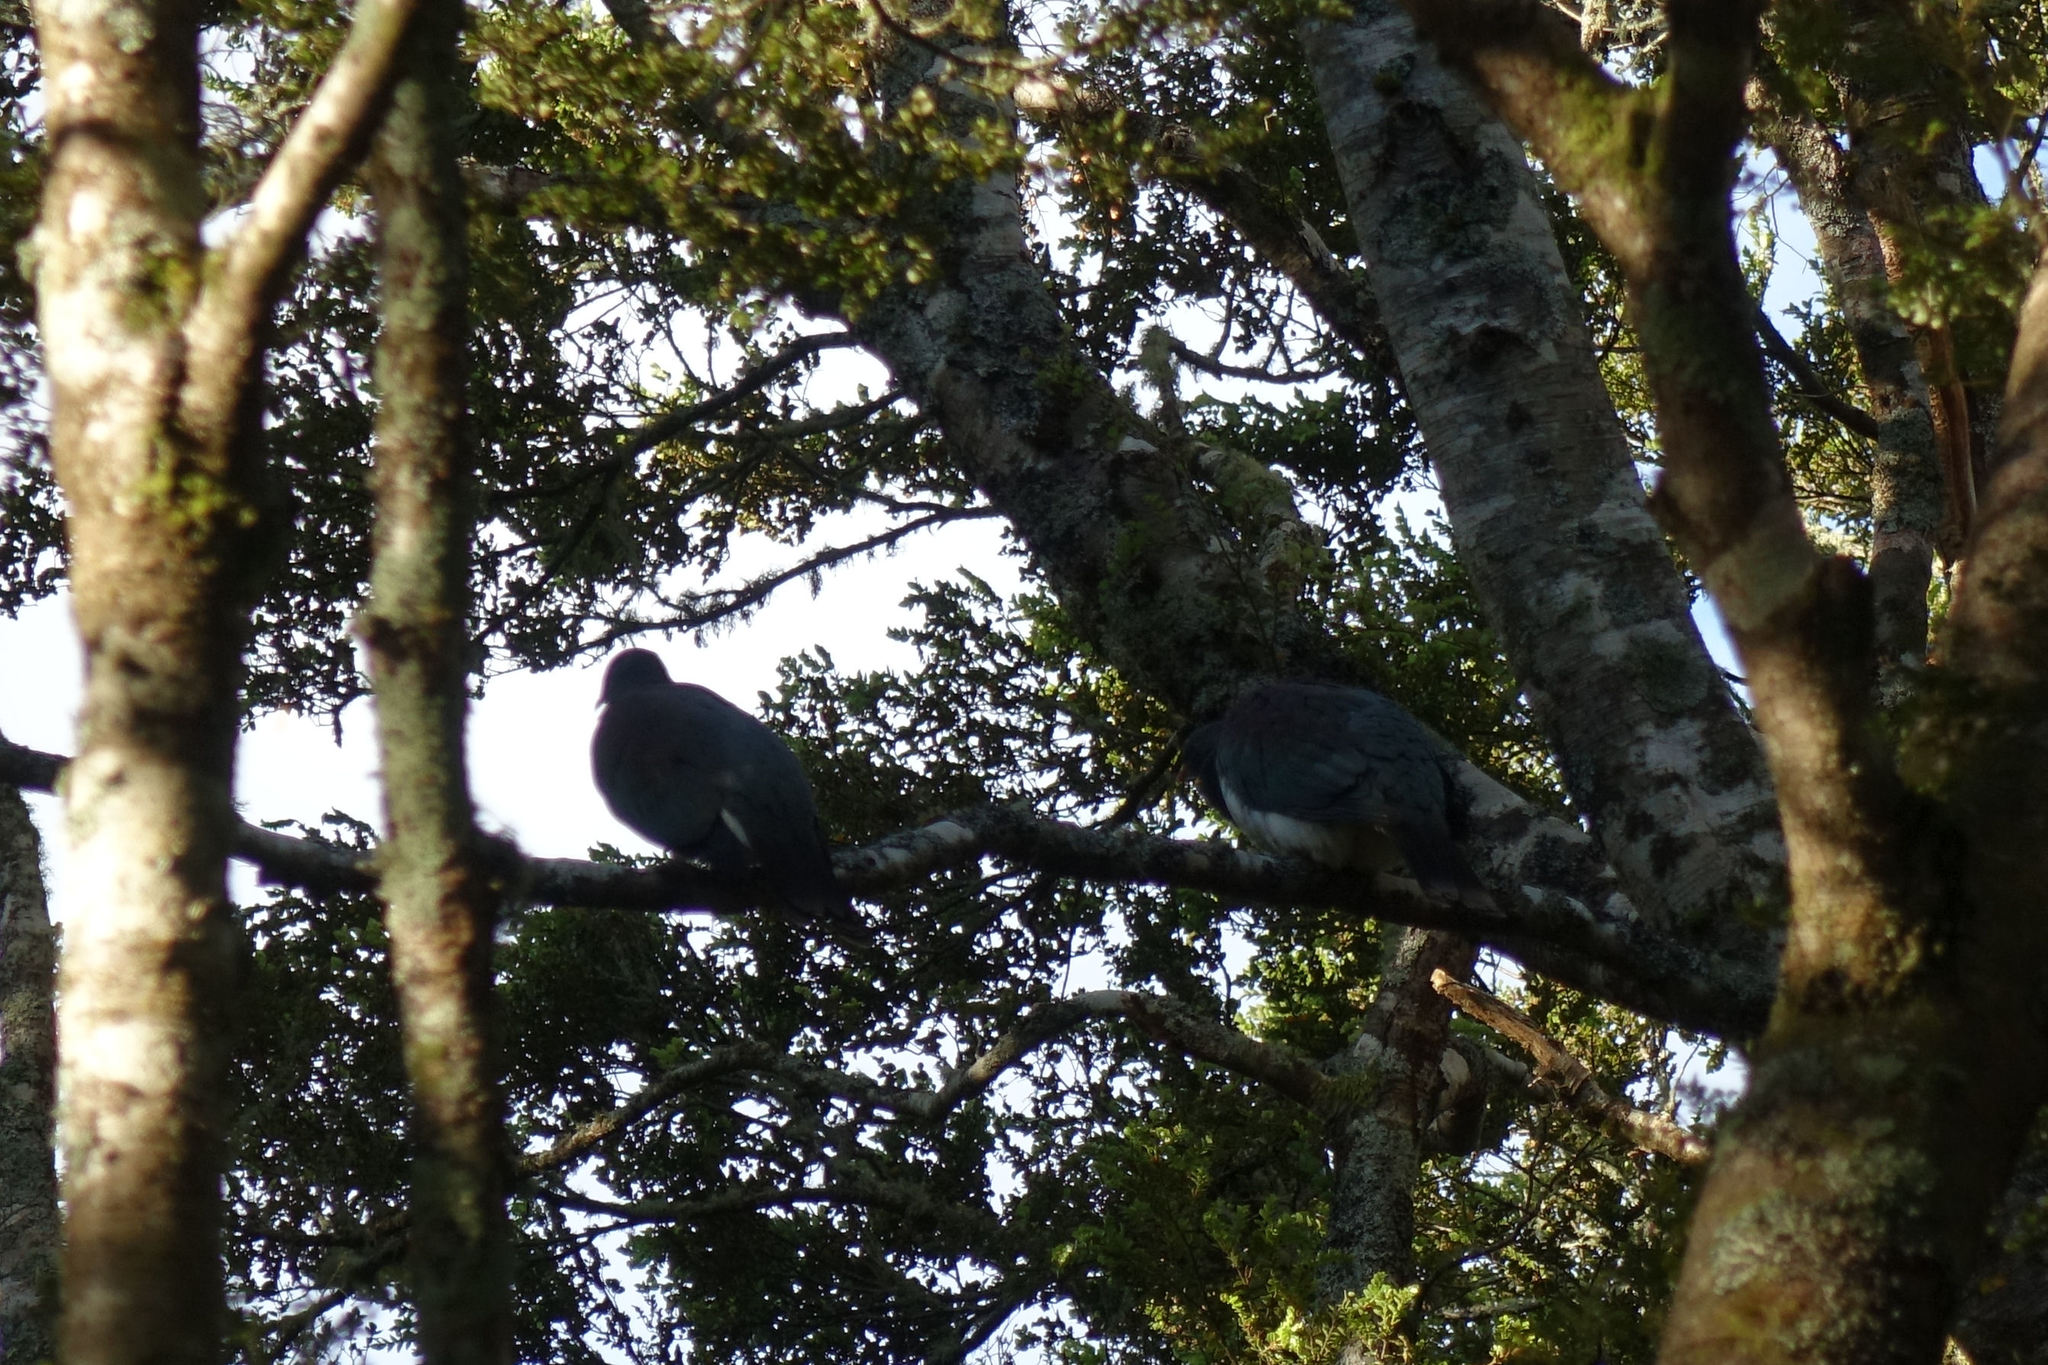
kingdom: Animalia
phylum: Chordata
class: Aves
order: Columbiformes
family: Columbidae
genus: Hemiphaga
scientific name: Hemiphaga novaeseelandiae
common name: New zealand pigeon
